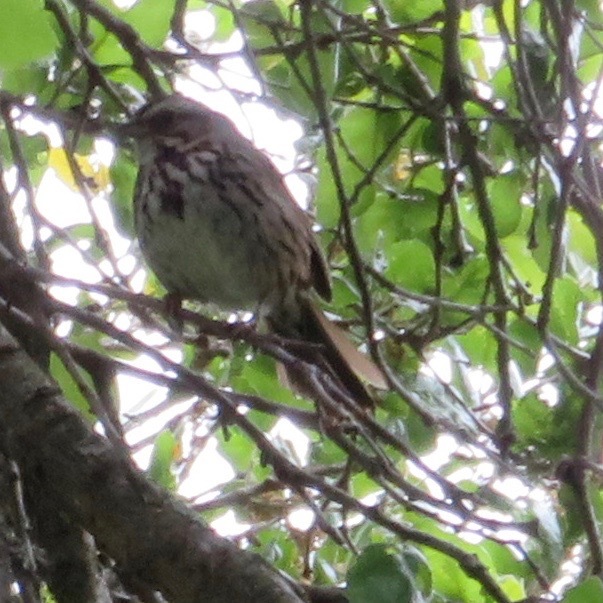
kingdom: Animalia
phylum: Chordata
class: Aves
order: Passeriformes
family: Passerellidae
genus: Melospiza
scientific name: Melospiza melodia
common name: Song sparrow
